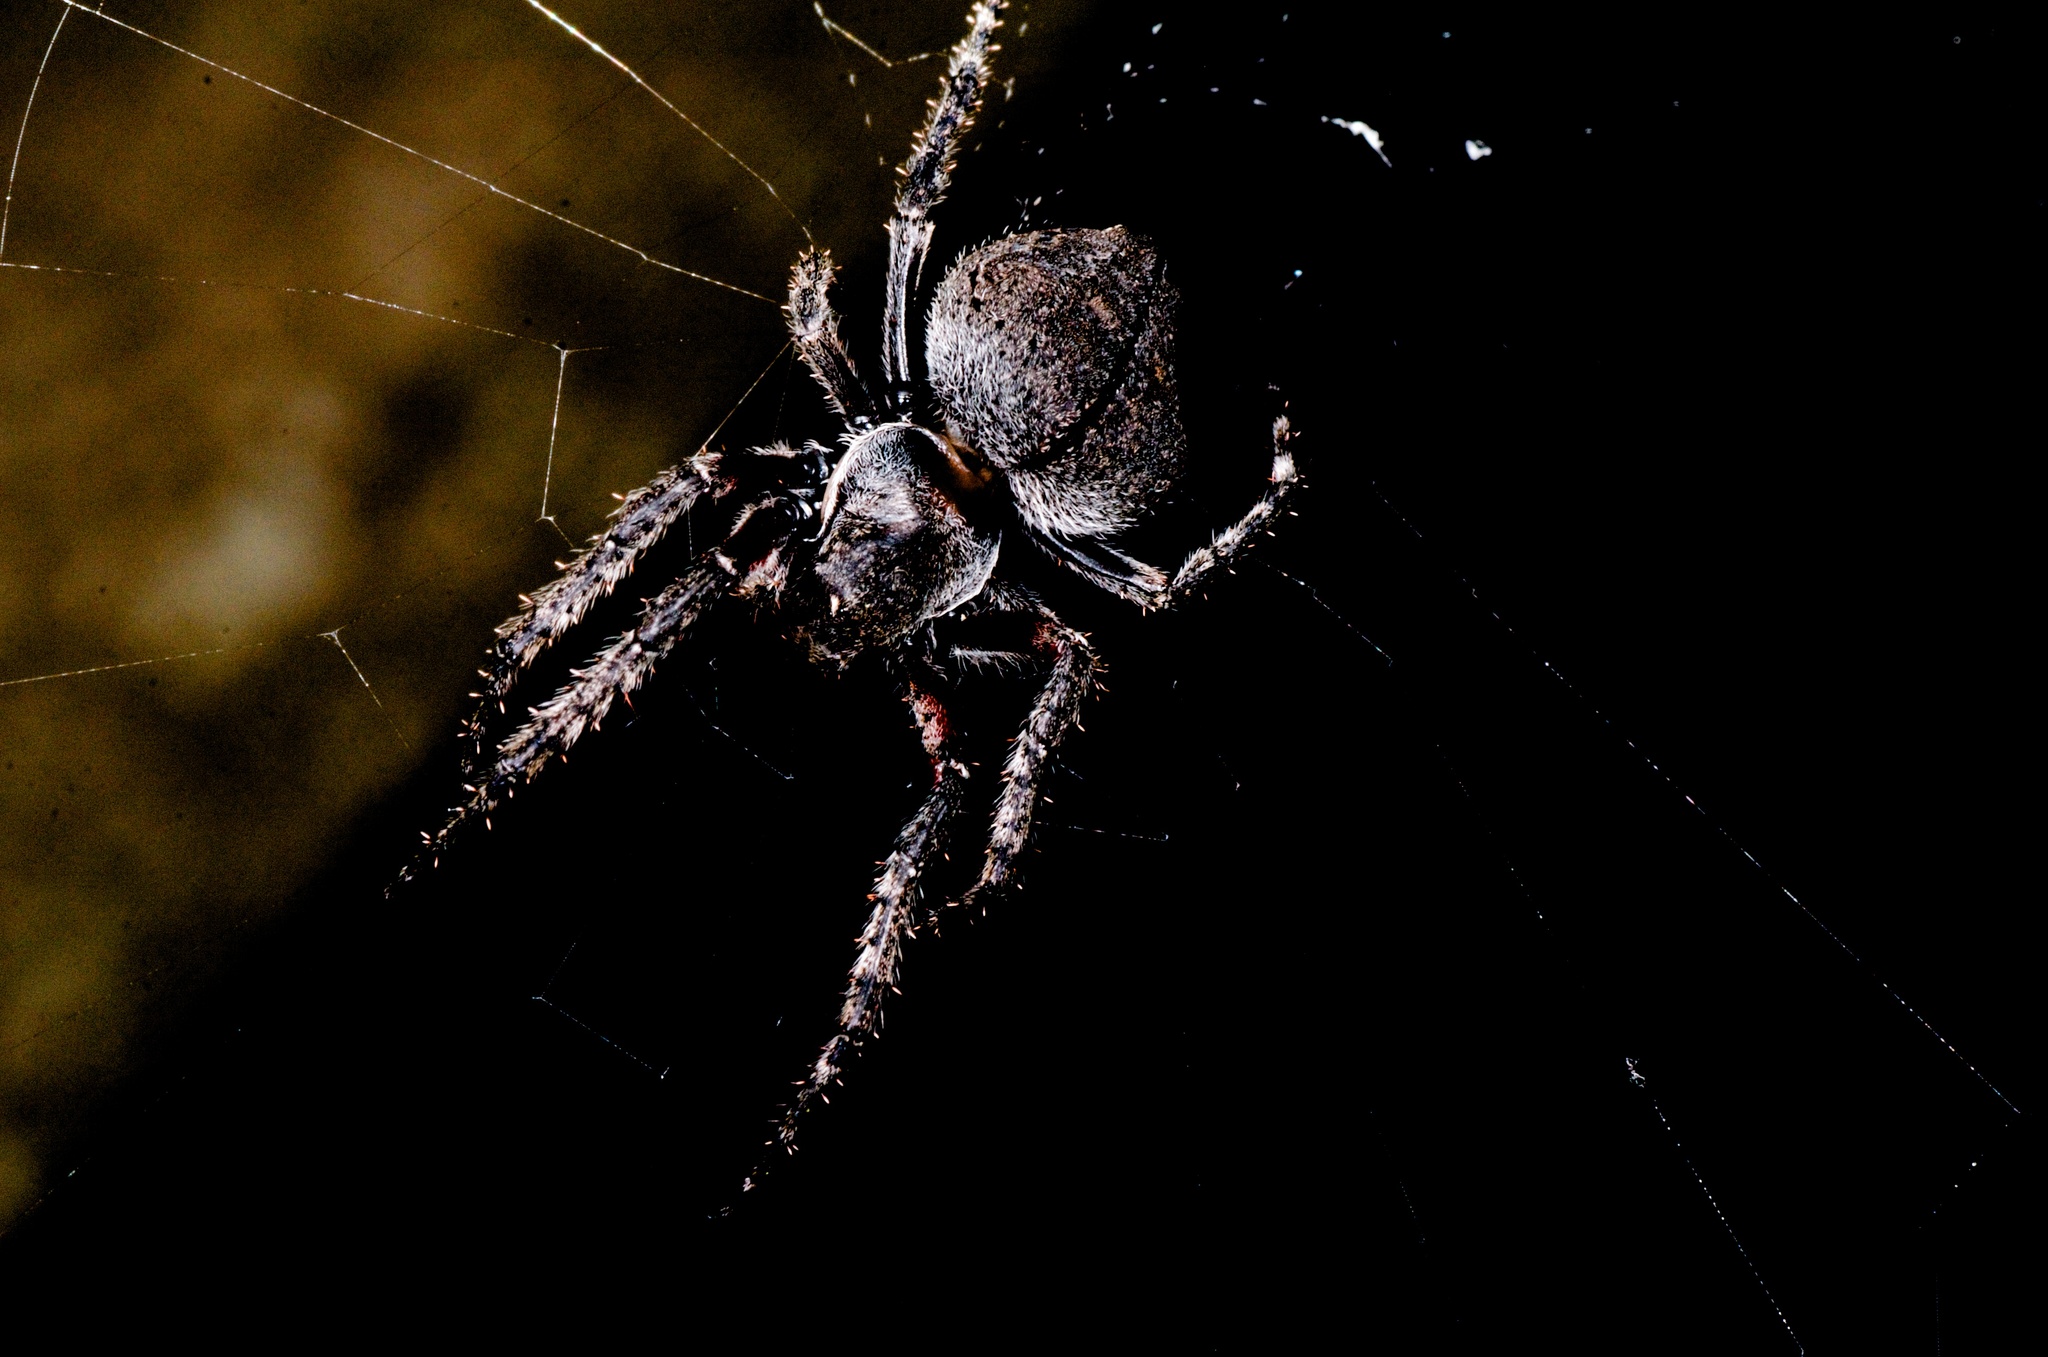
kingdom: Animalia
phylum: Arthropoda
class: Arachnida
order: Araneae
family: Araneidae
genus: Eriophora
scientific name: Eriophora pustulosa
